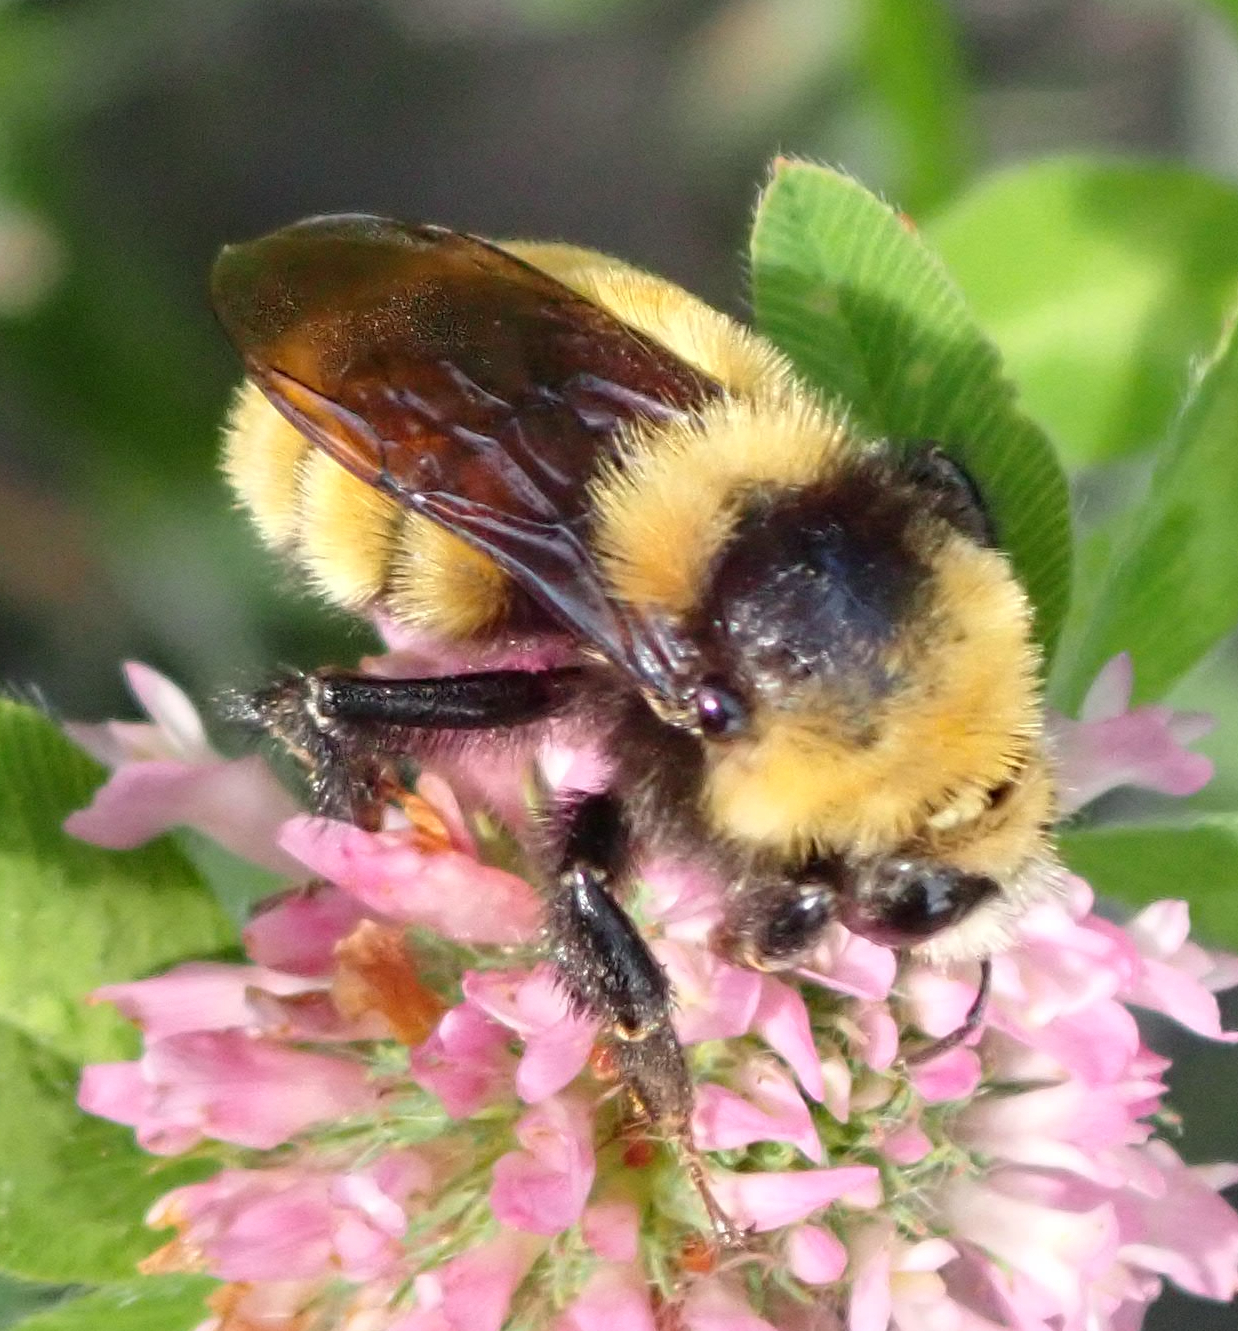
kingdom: Animalia
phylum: Arthropoda
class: Insecta
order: Hymenoptera
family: Apidae
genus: Bombus
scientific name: Bombus borealis
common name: Northern amber bumble bee
